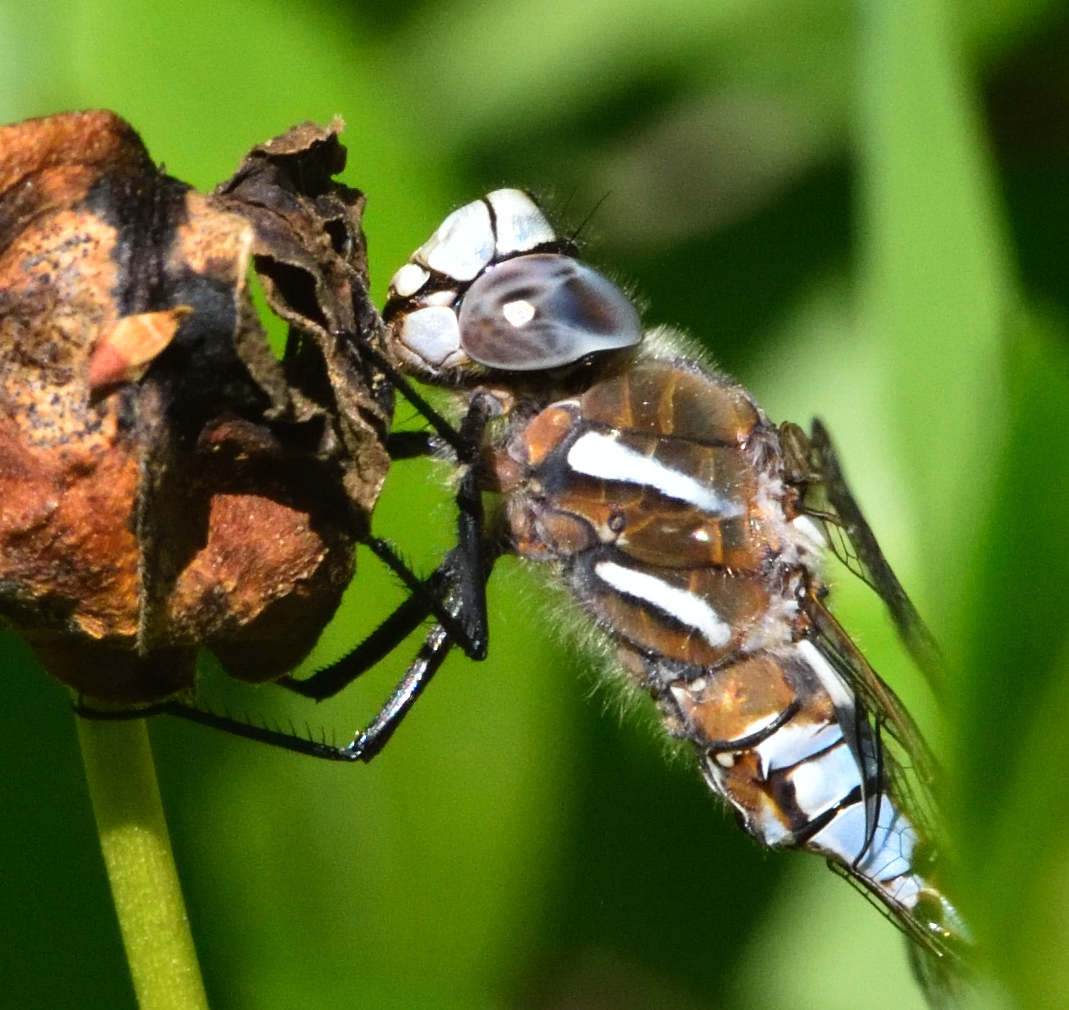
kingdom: Animalia
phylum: Arthropoda
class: Insecta
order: Odonata
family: Aeshnidae
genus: Rhionaeschna
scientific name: Rhionaeschna californica
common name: California darner
